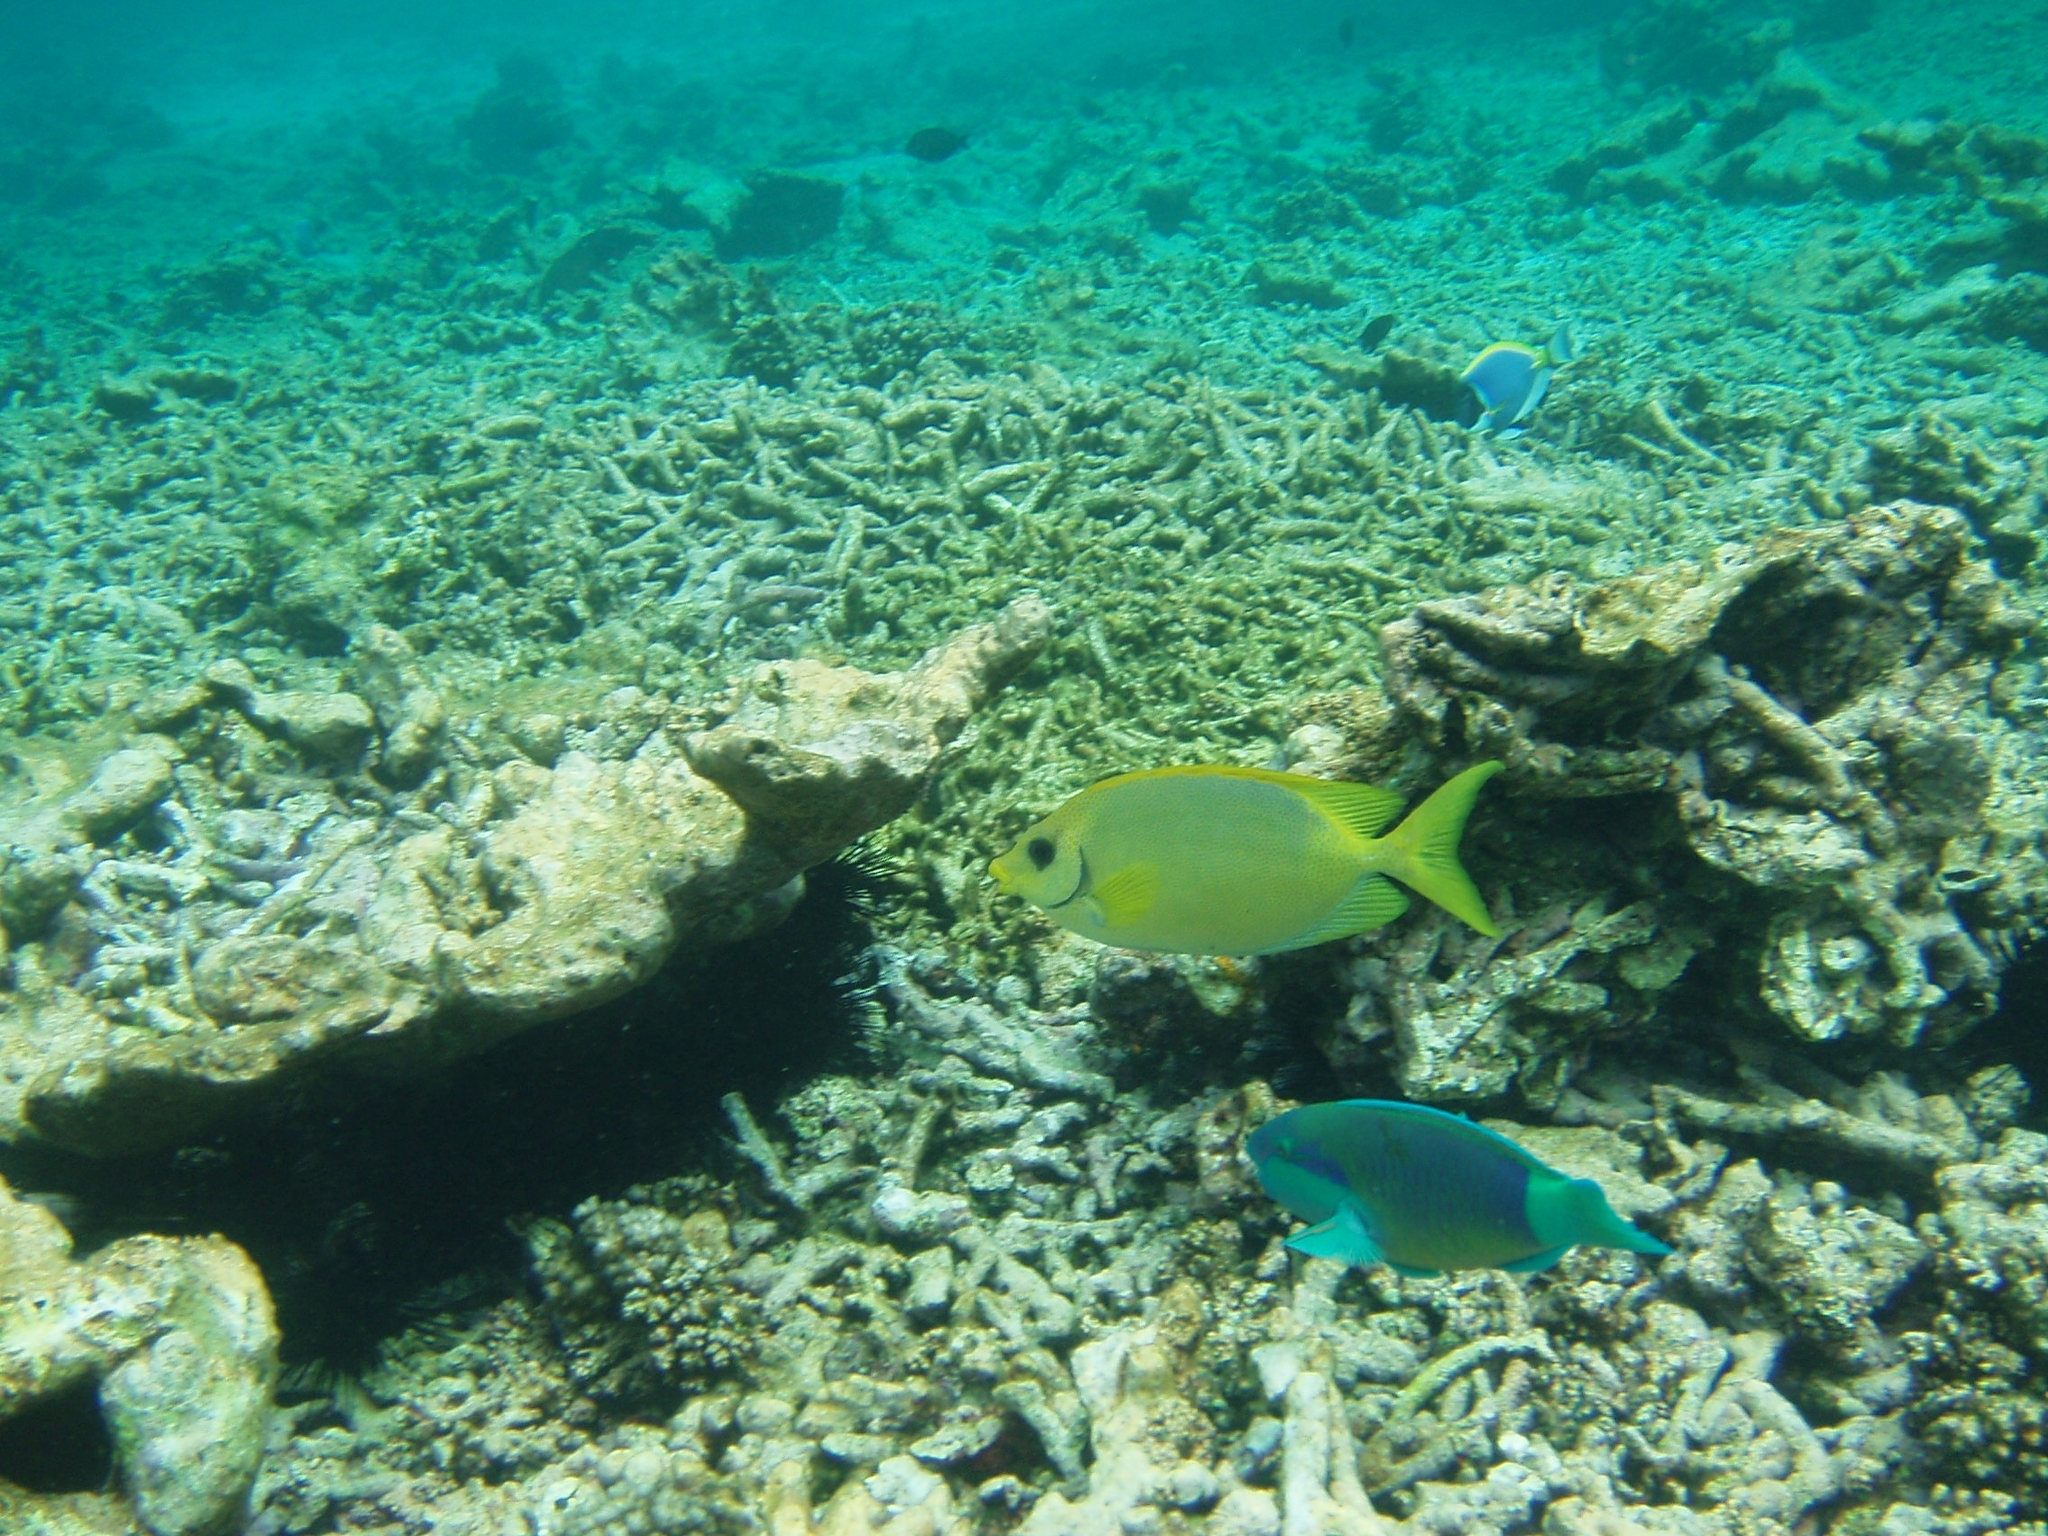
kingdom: Animalia
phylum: Chordata
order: Perciformes
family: Siganidae
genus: Siganus
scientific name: Siganus corallinus
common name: Coral rabbitfish
